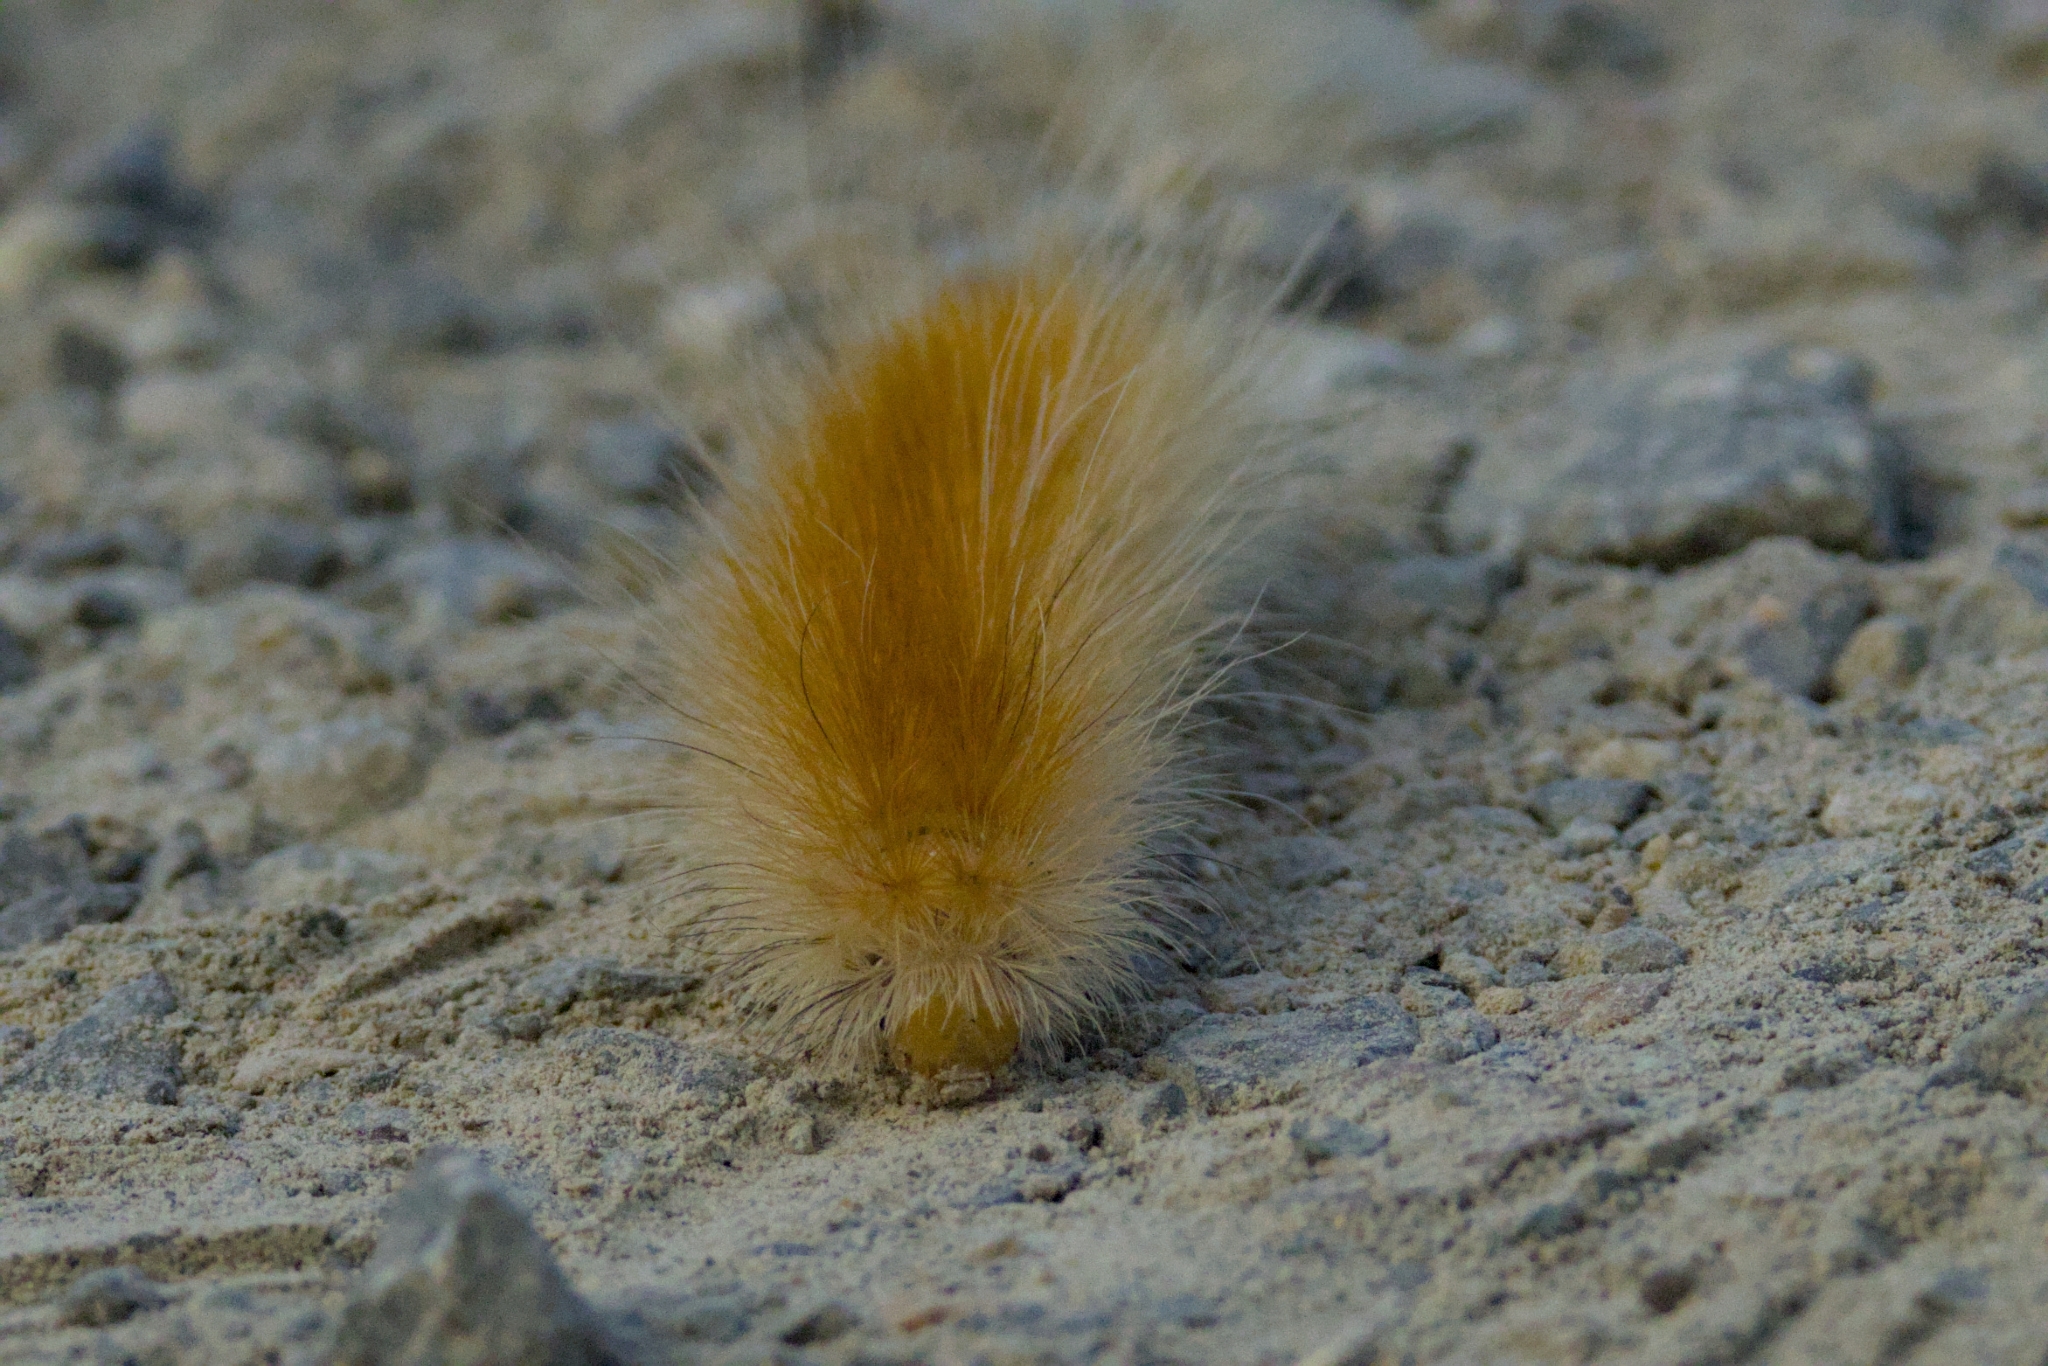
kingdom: Animalia
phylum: Arthropoda
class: Insecta
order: Lepidoptera
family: Erebidae
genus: Spilosoma
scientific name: Spilosoma virginica
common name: Virginia tiger moth
